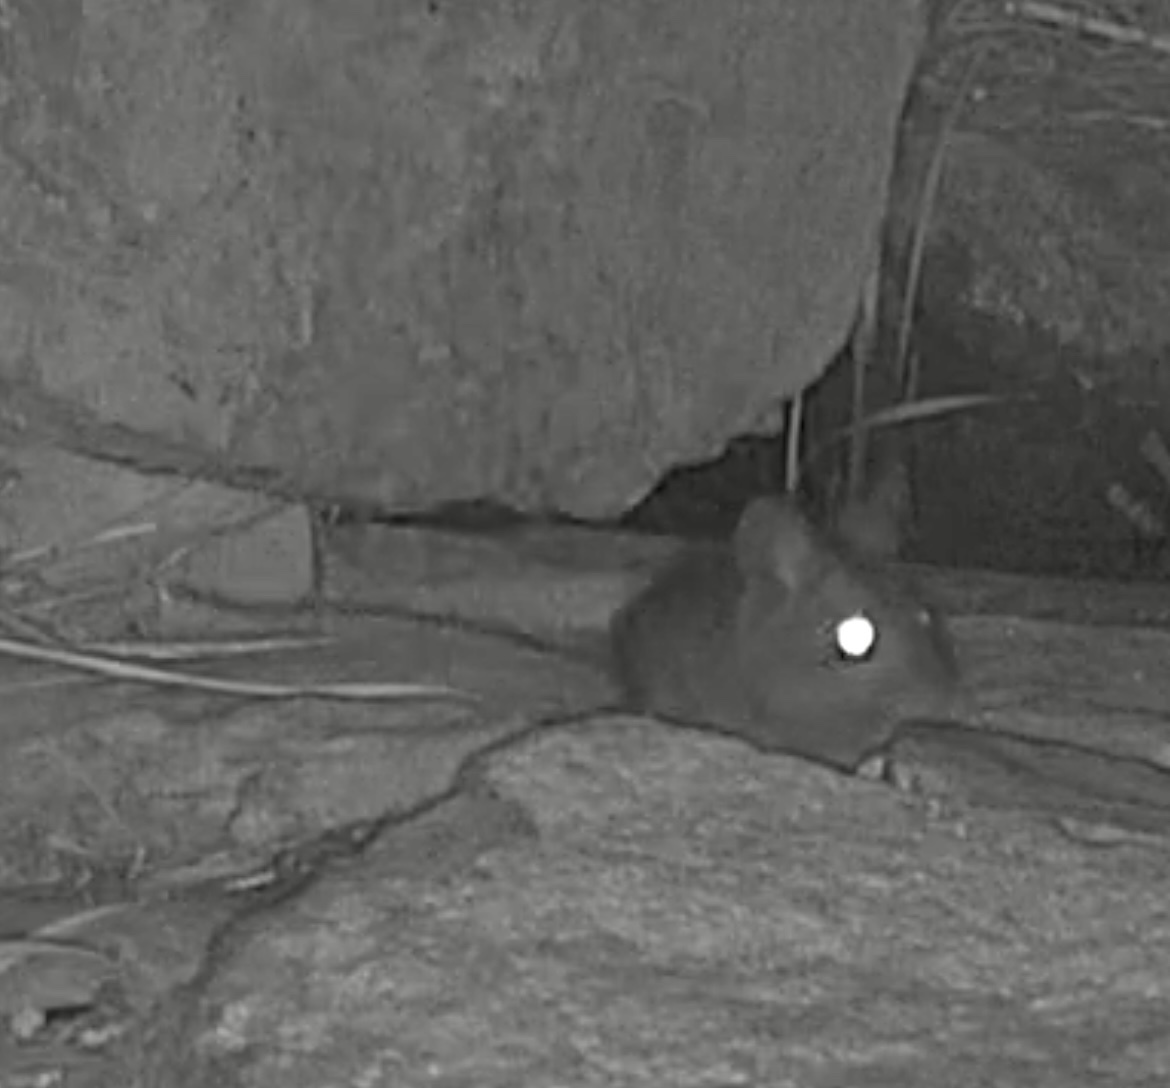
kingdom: Animalia
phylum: Chordata
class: Mammalia
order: Rodentia
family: Muridae
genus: Apodemus
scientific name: Apodemus sylvaticus
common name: Wood mouse
